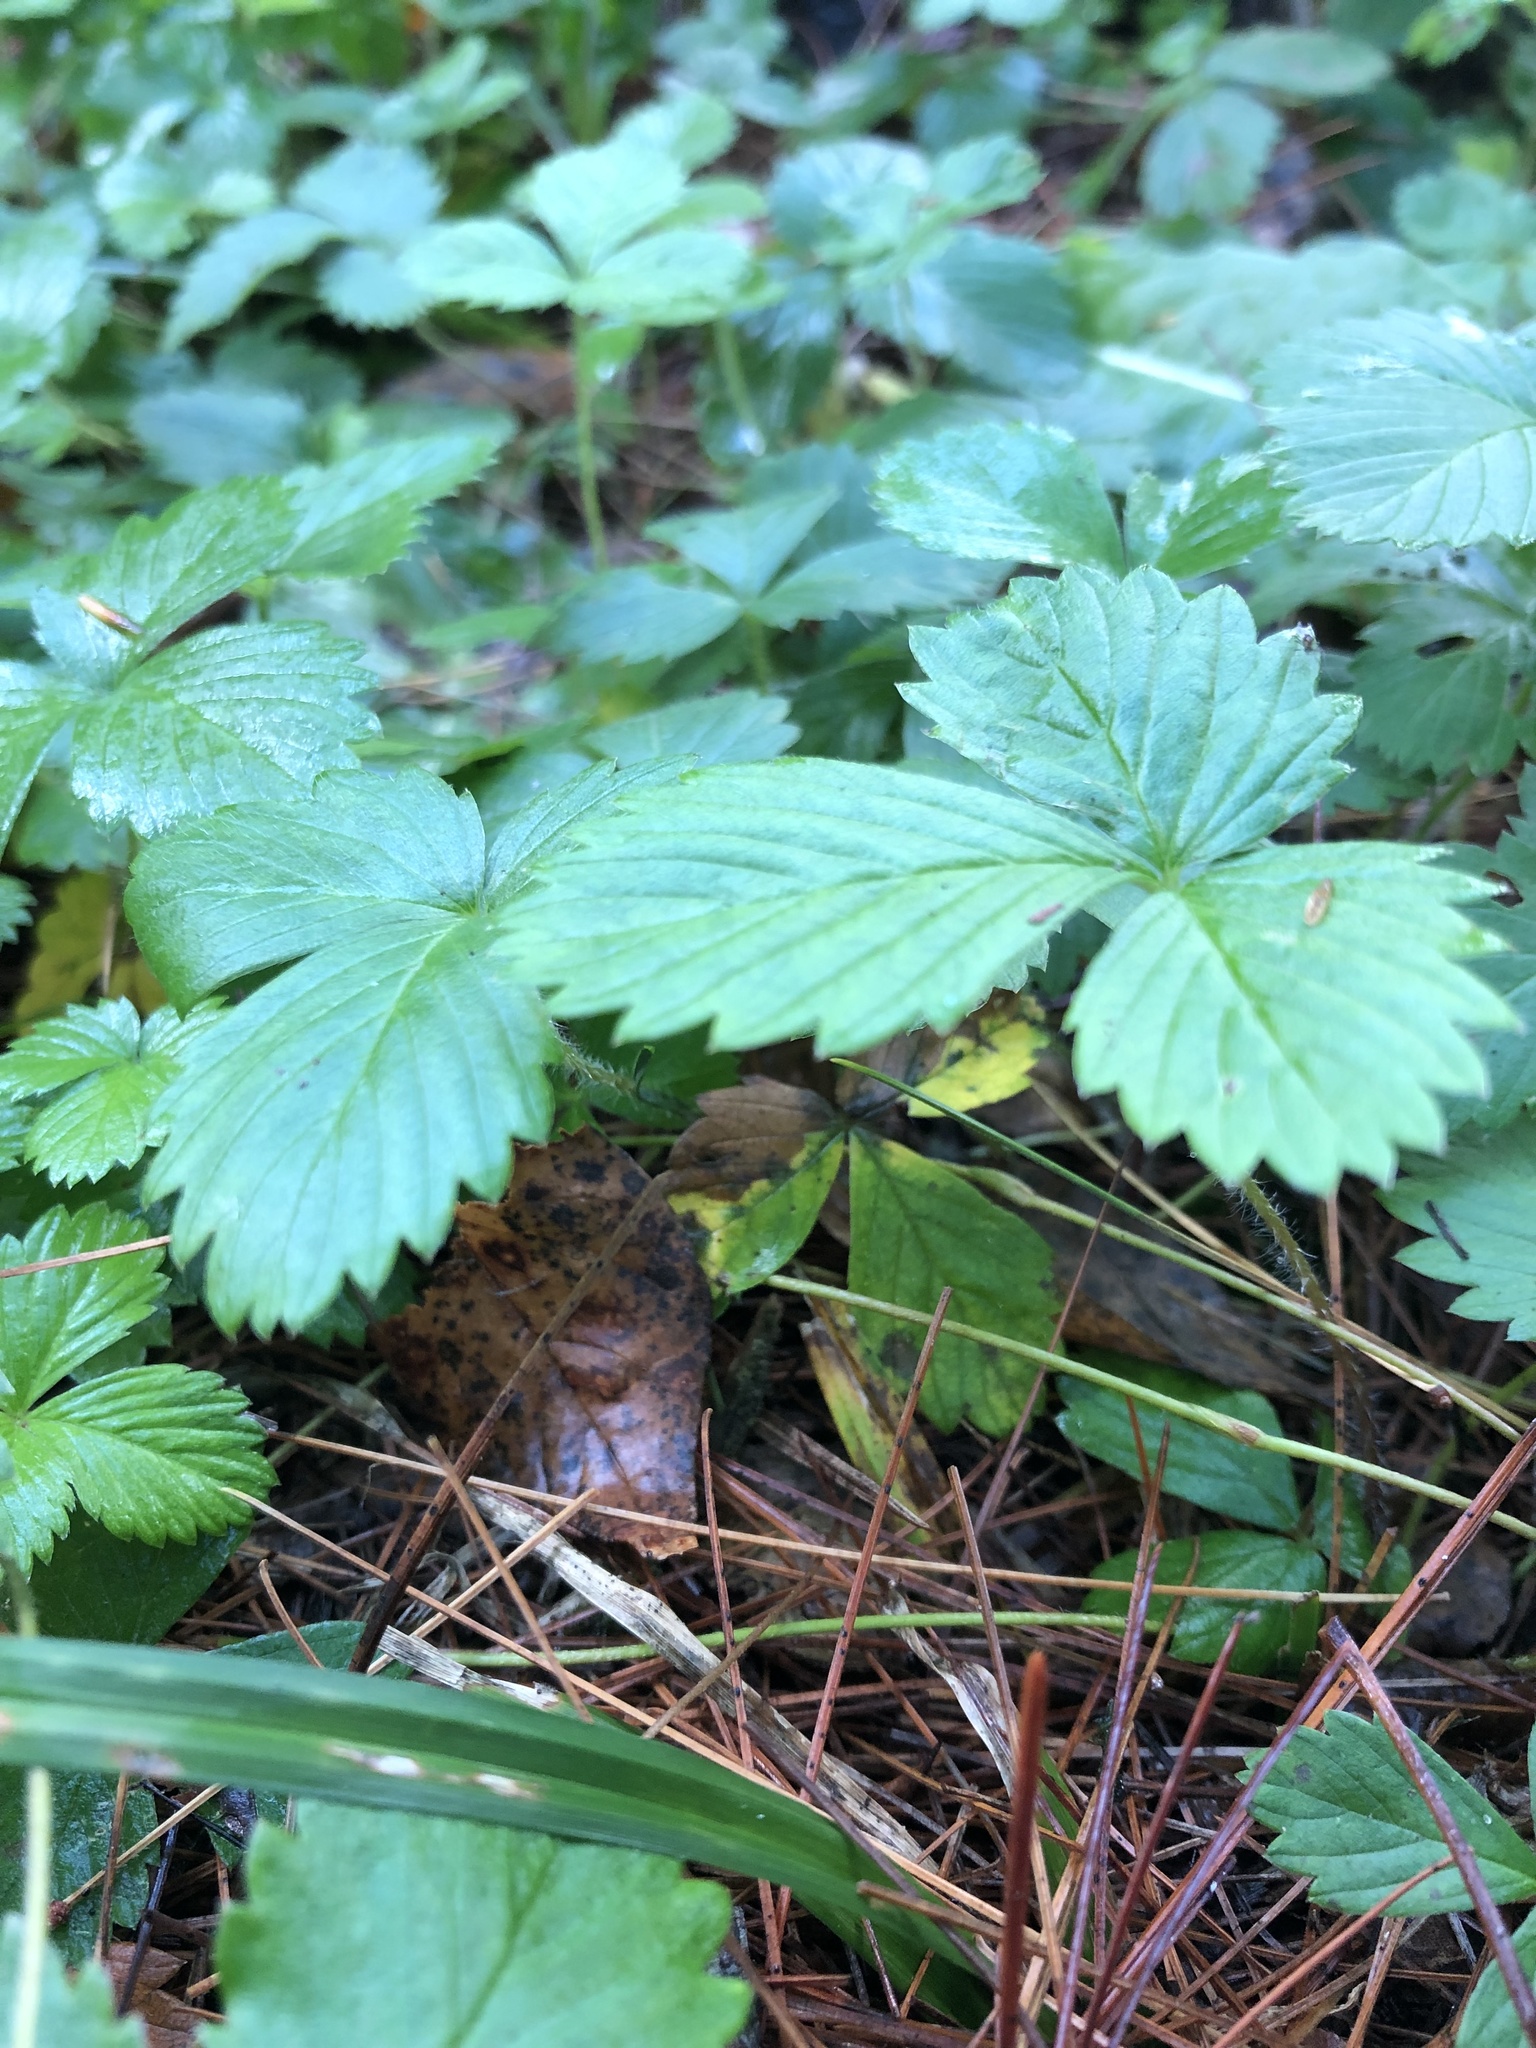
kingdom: Plantae
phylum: Tracheophyta
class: Magnoliopsida
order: Rosales
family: Rosaceae
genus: Potentilla
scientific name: Potentilla indica
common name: Yellow-flowered strawberry
